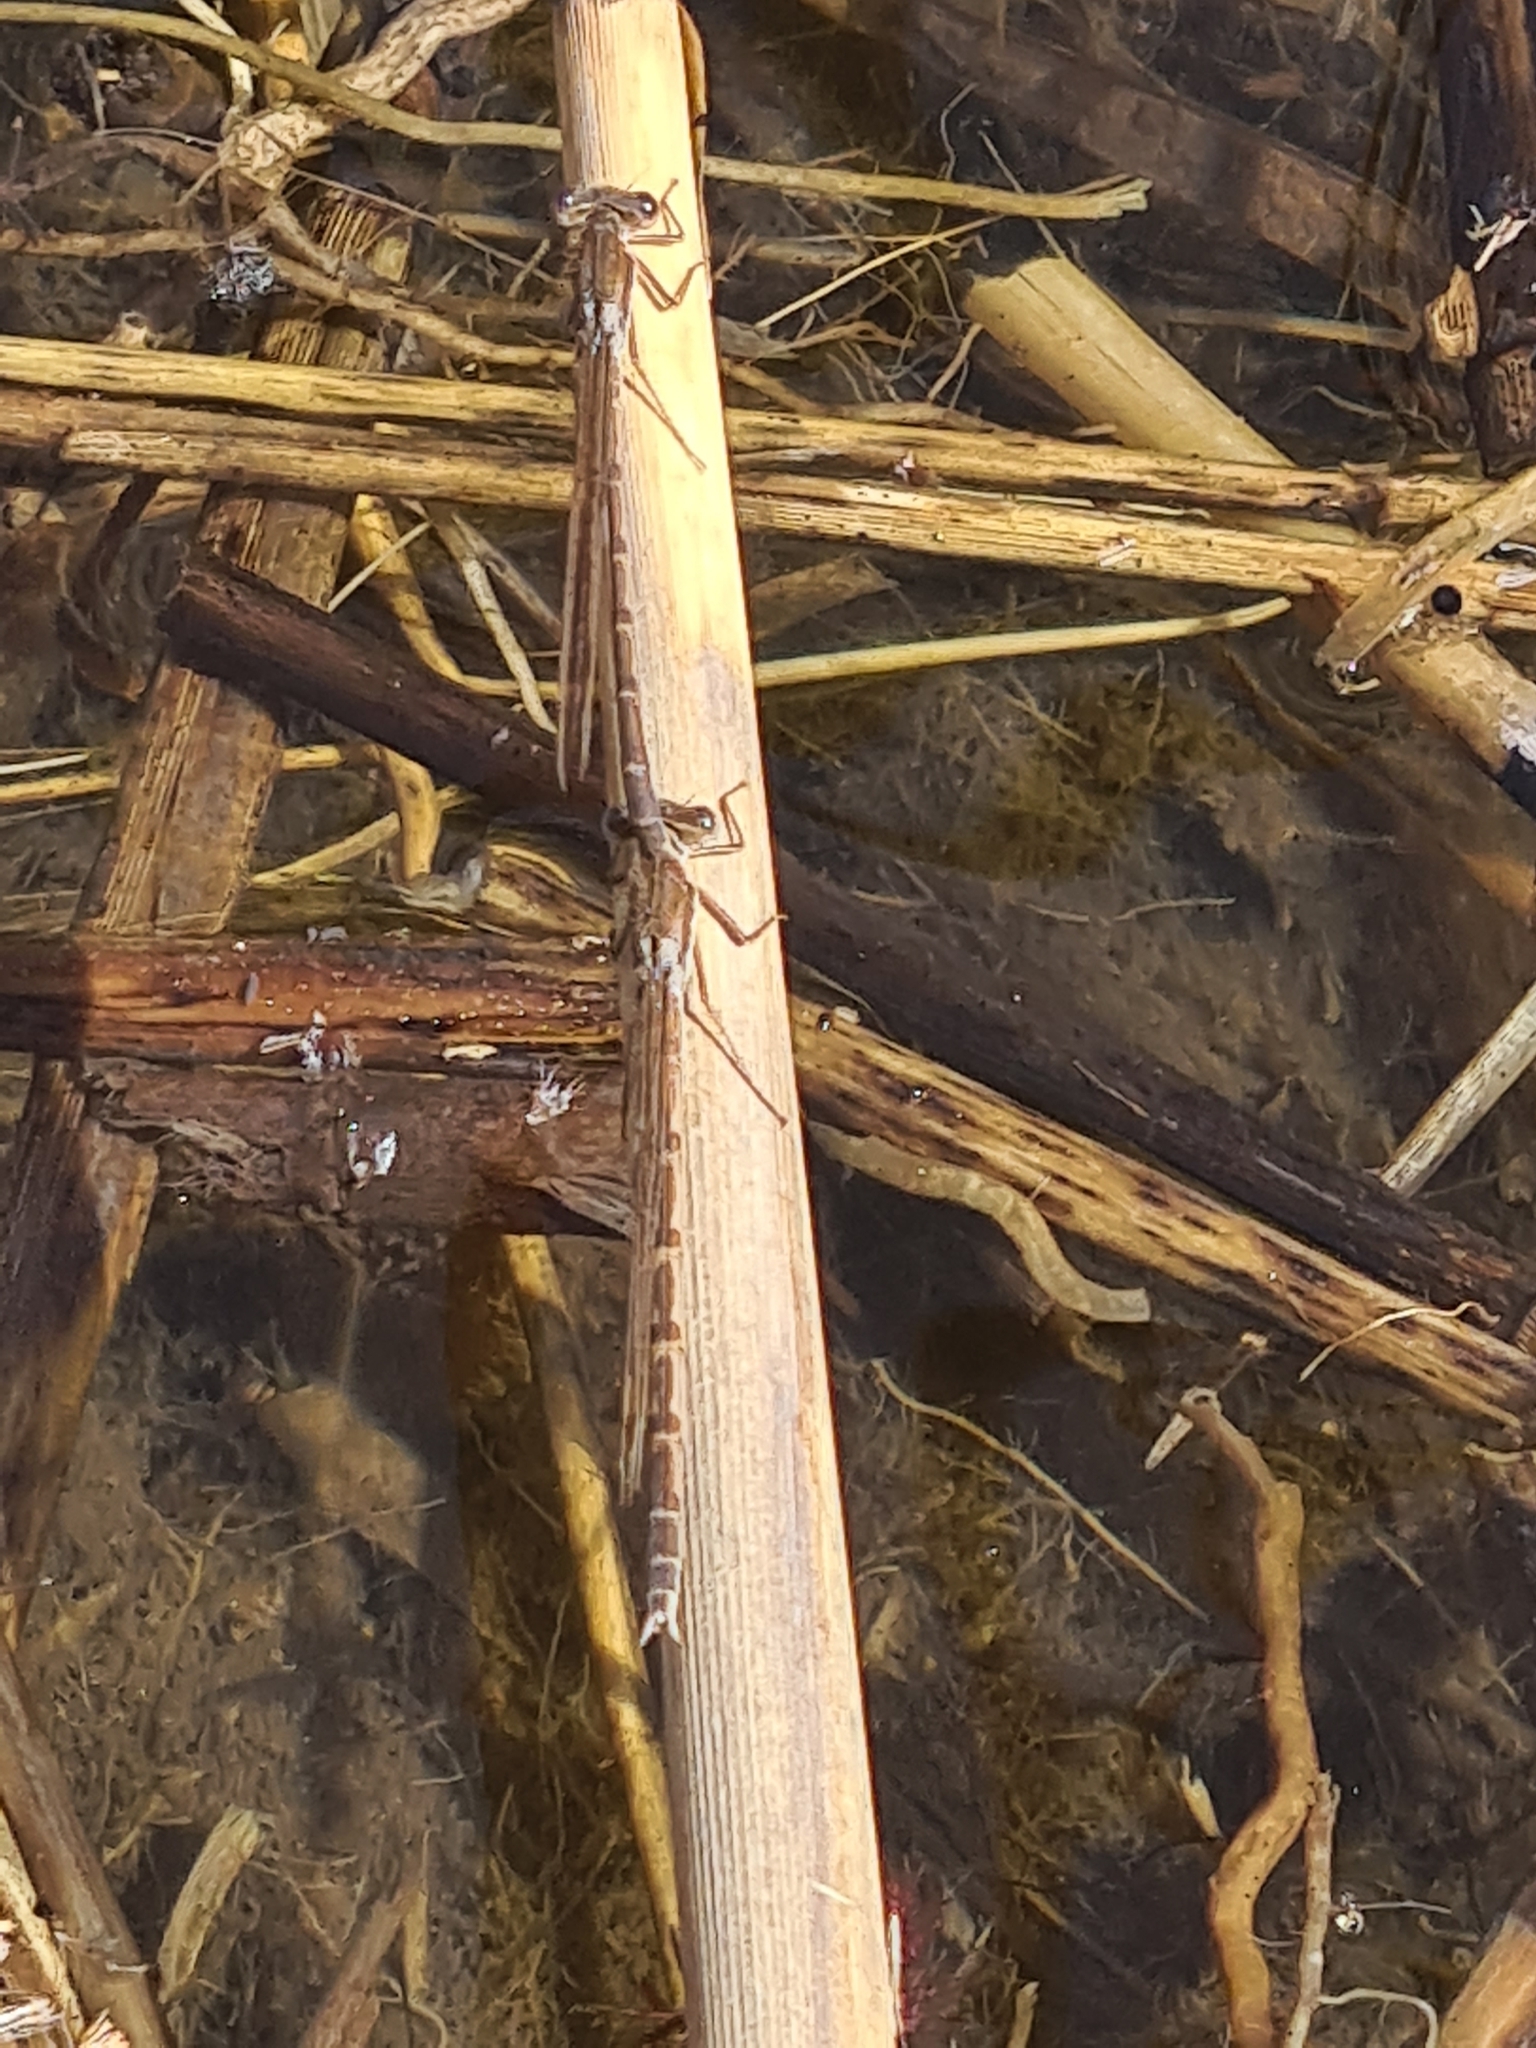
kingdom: Animalia
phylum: Arthropoda
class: Insecta
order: Odonata
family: Lestidae
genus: Sympecma
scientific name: Sympecma fusca
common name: Common winter damsel
